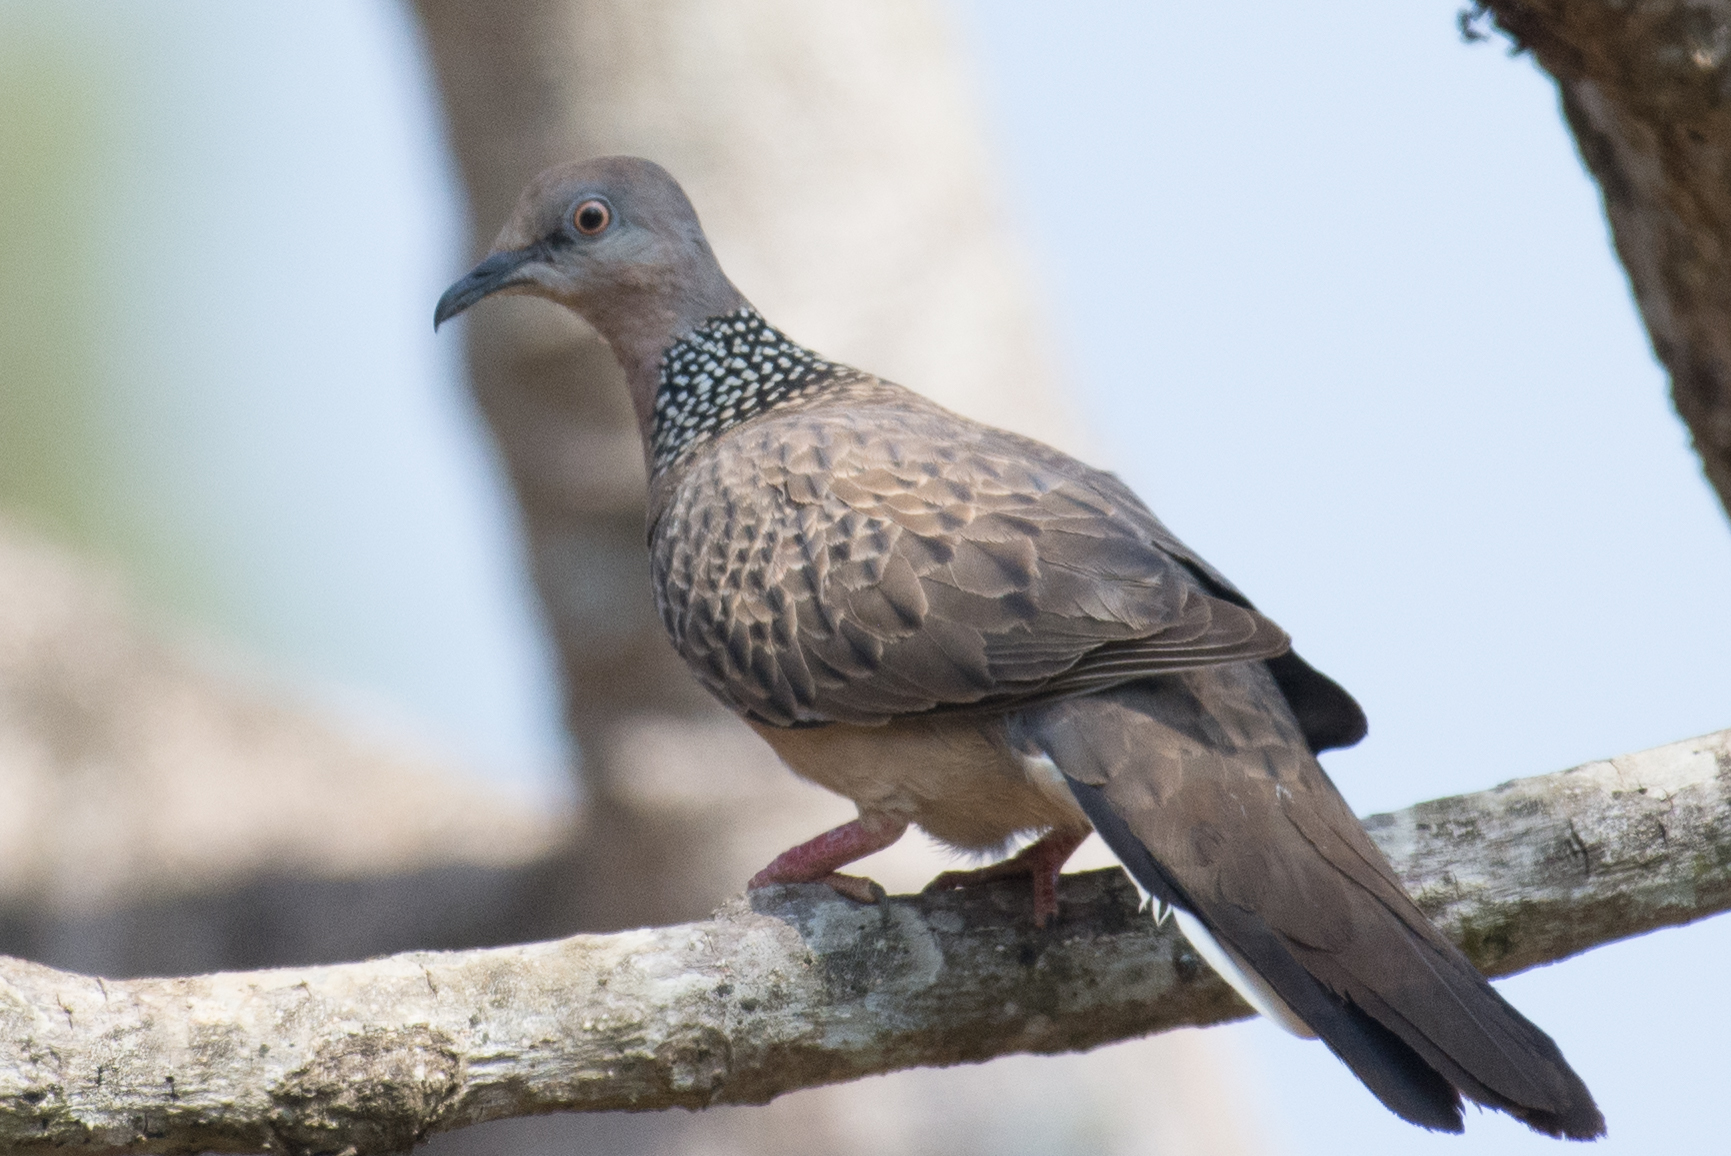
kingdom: Animalia
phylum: Chordata
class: Aves
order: Columbiformes
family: Columbidae
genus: Spilopelia
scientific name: Spilopelia chinensis
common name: Spotted dove
